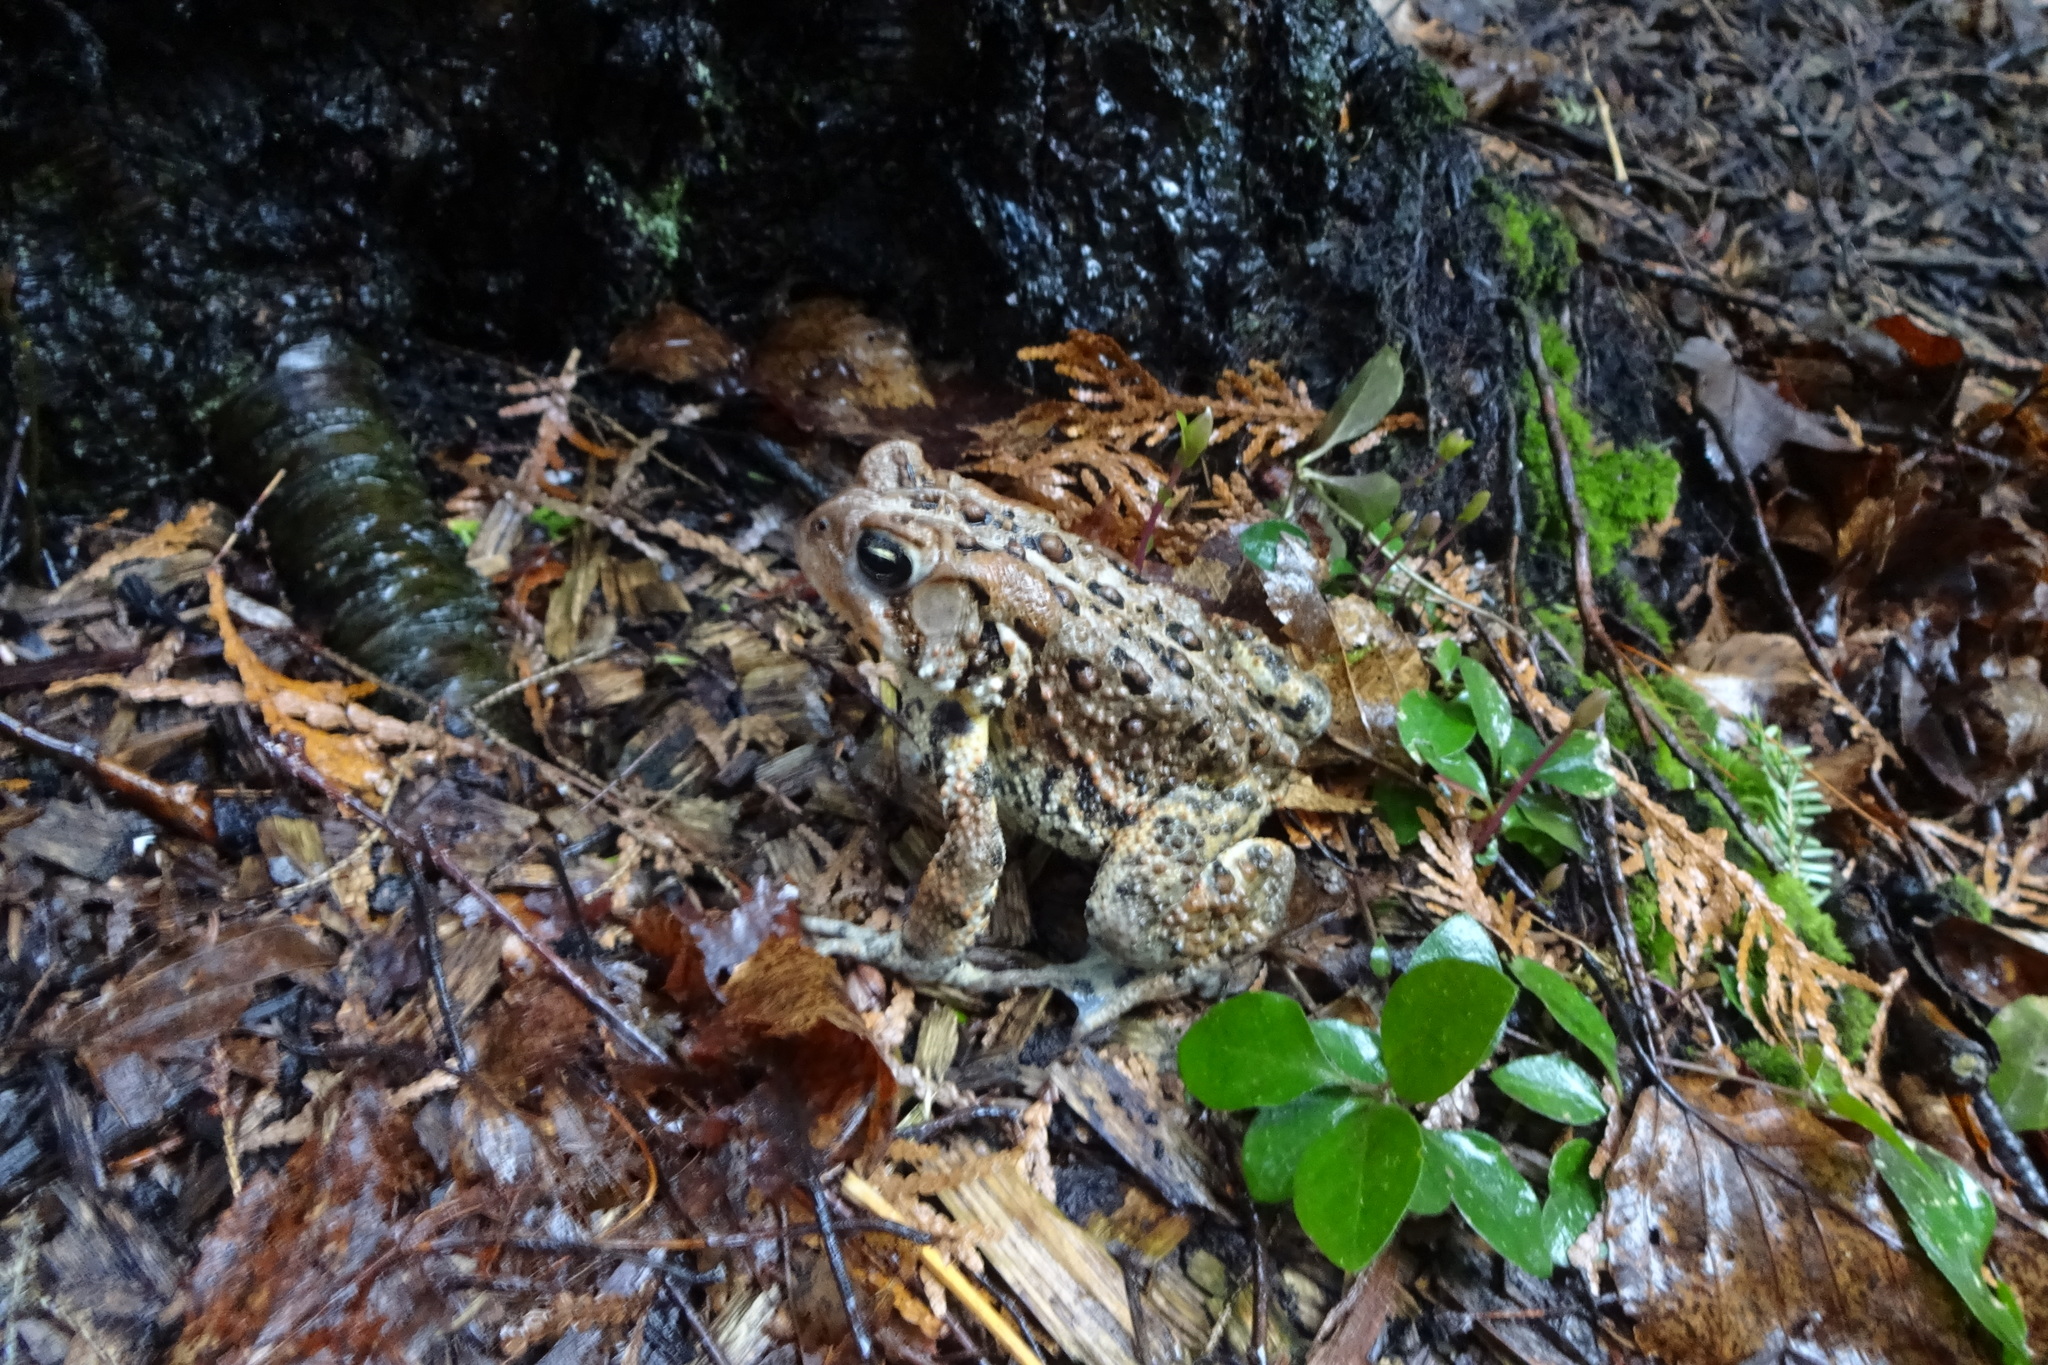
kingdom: Animalia
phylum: Chordata
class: Amphibia
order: Anura
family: Bufonidae
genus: Anaxyrus
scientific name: Anaxyrus americanus
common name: American toad
